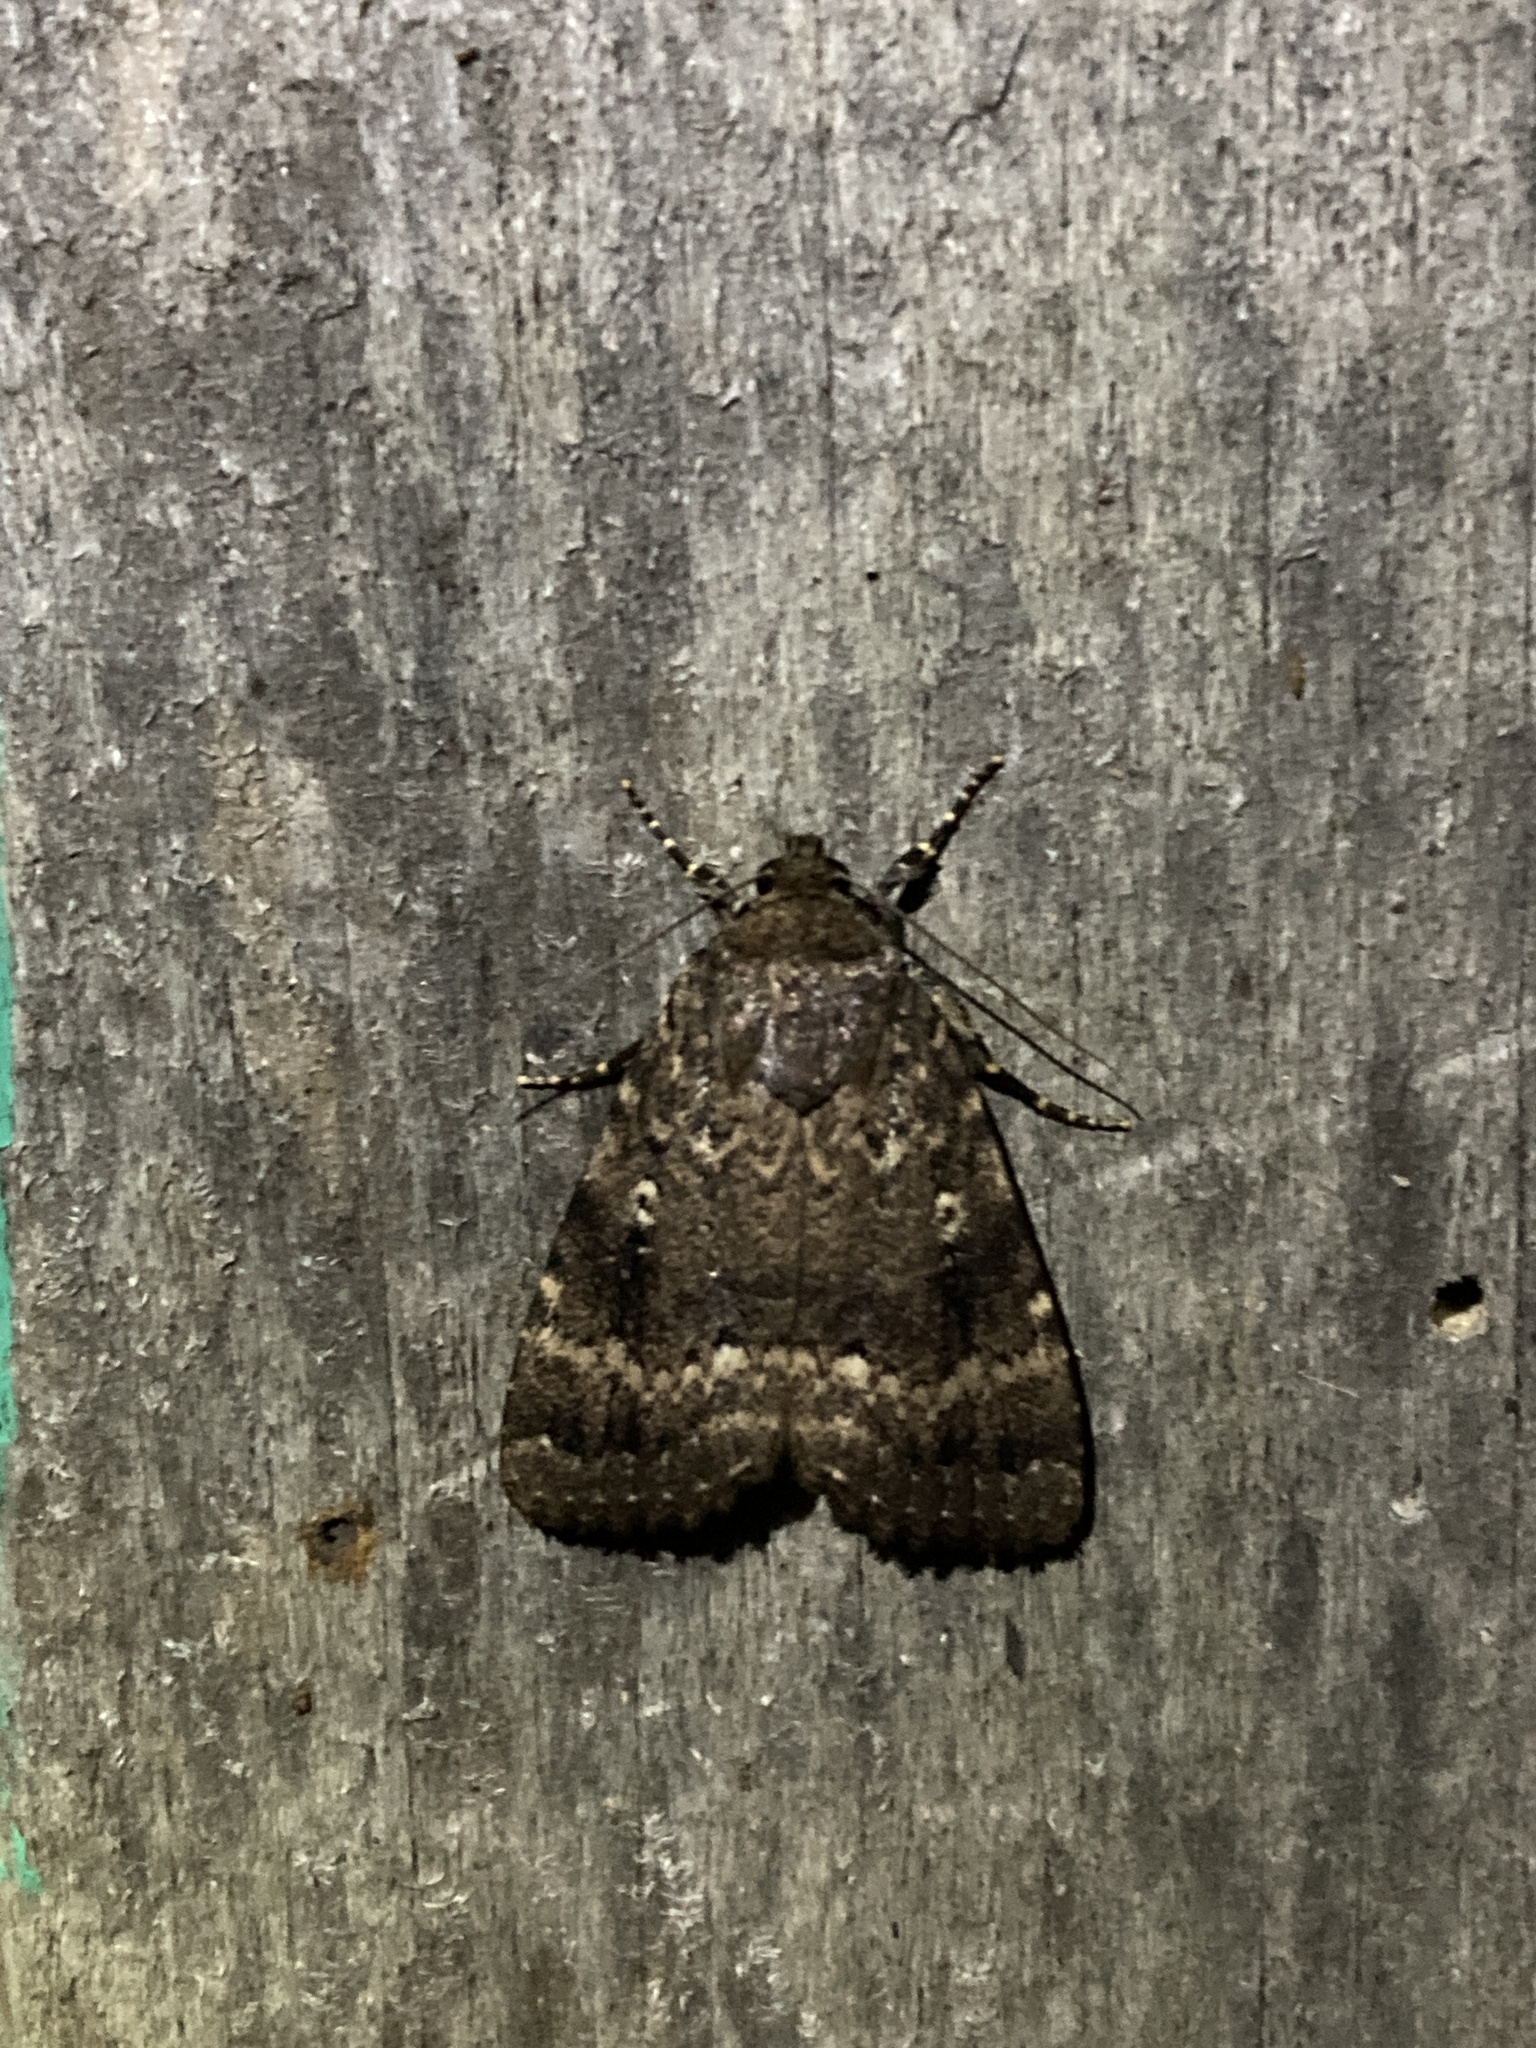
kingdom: Animalia
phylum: Arthropoda
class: Insecta
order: Lepidoptera
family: Noctuidae
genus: Amphipyra
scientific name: Amphipyra pyramidea
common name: Copper underwing
